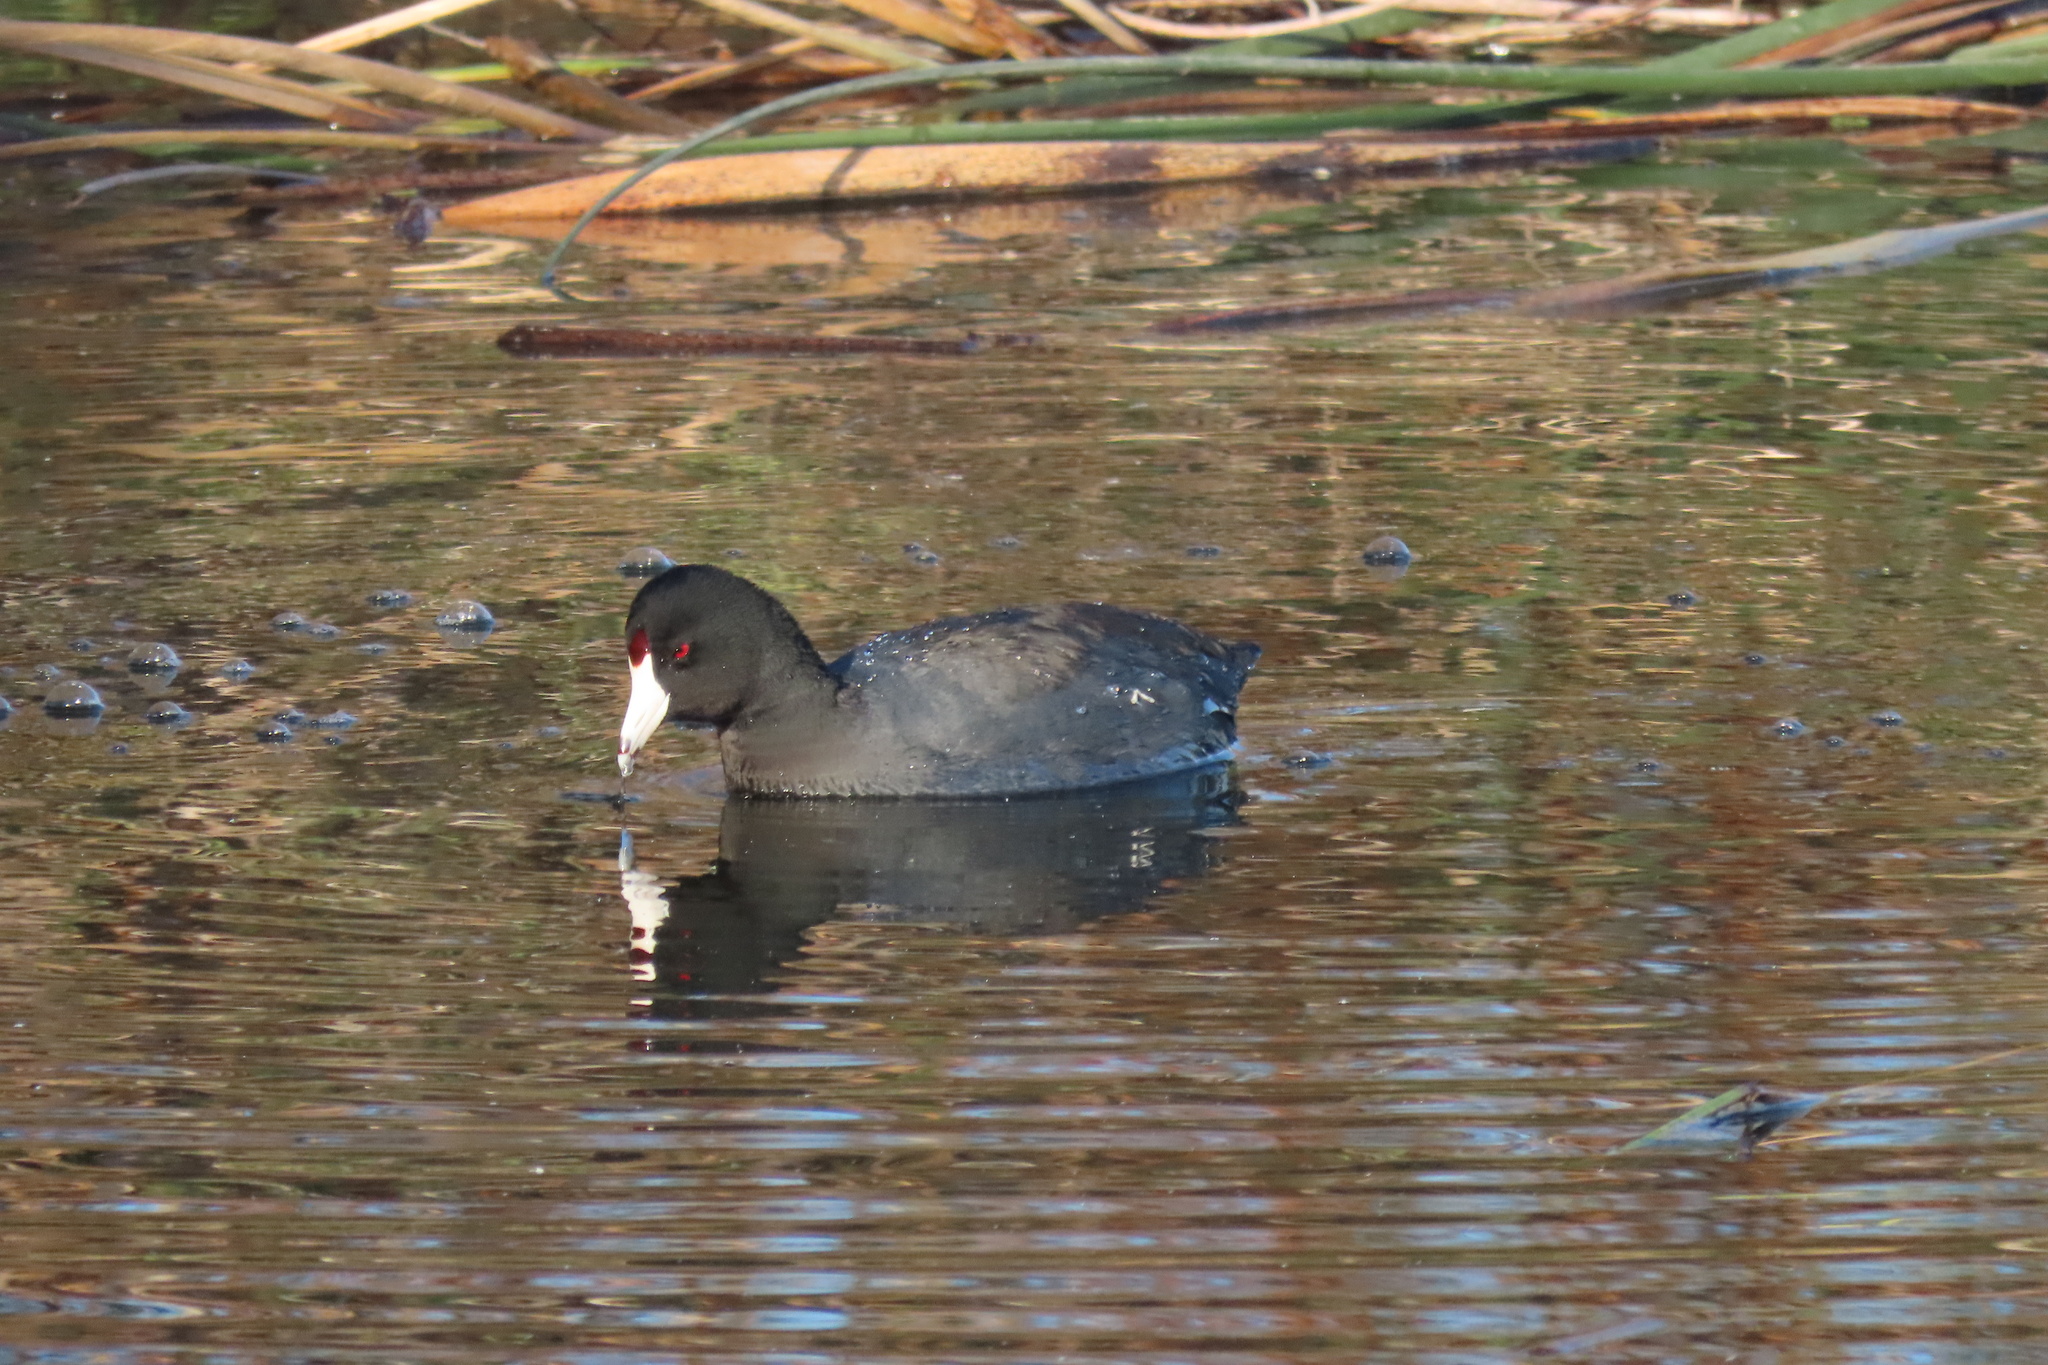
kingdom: Animalia
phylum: Chordata
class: Aves
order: Gruiformes
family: Rallidae
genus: Fulica
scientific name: Fulica americana
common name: American coot
